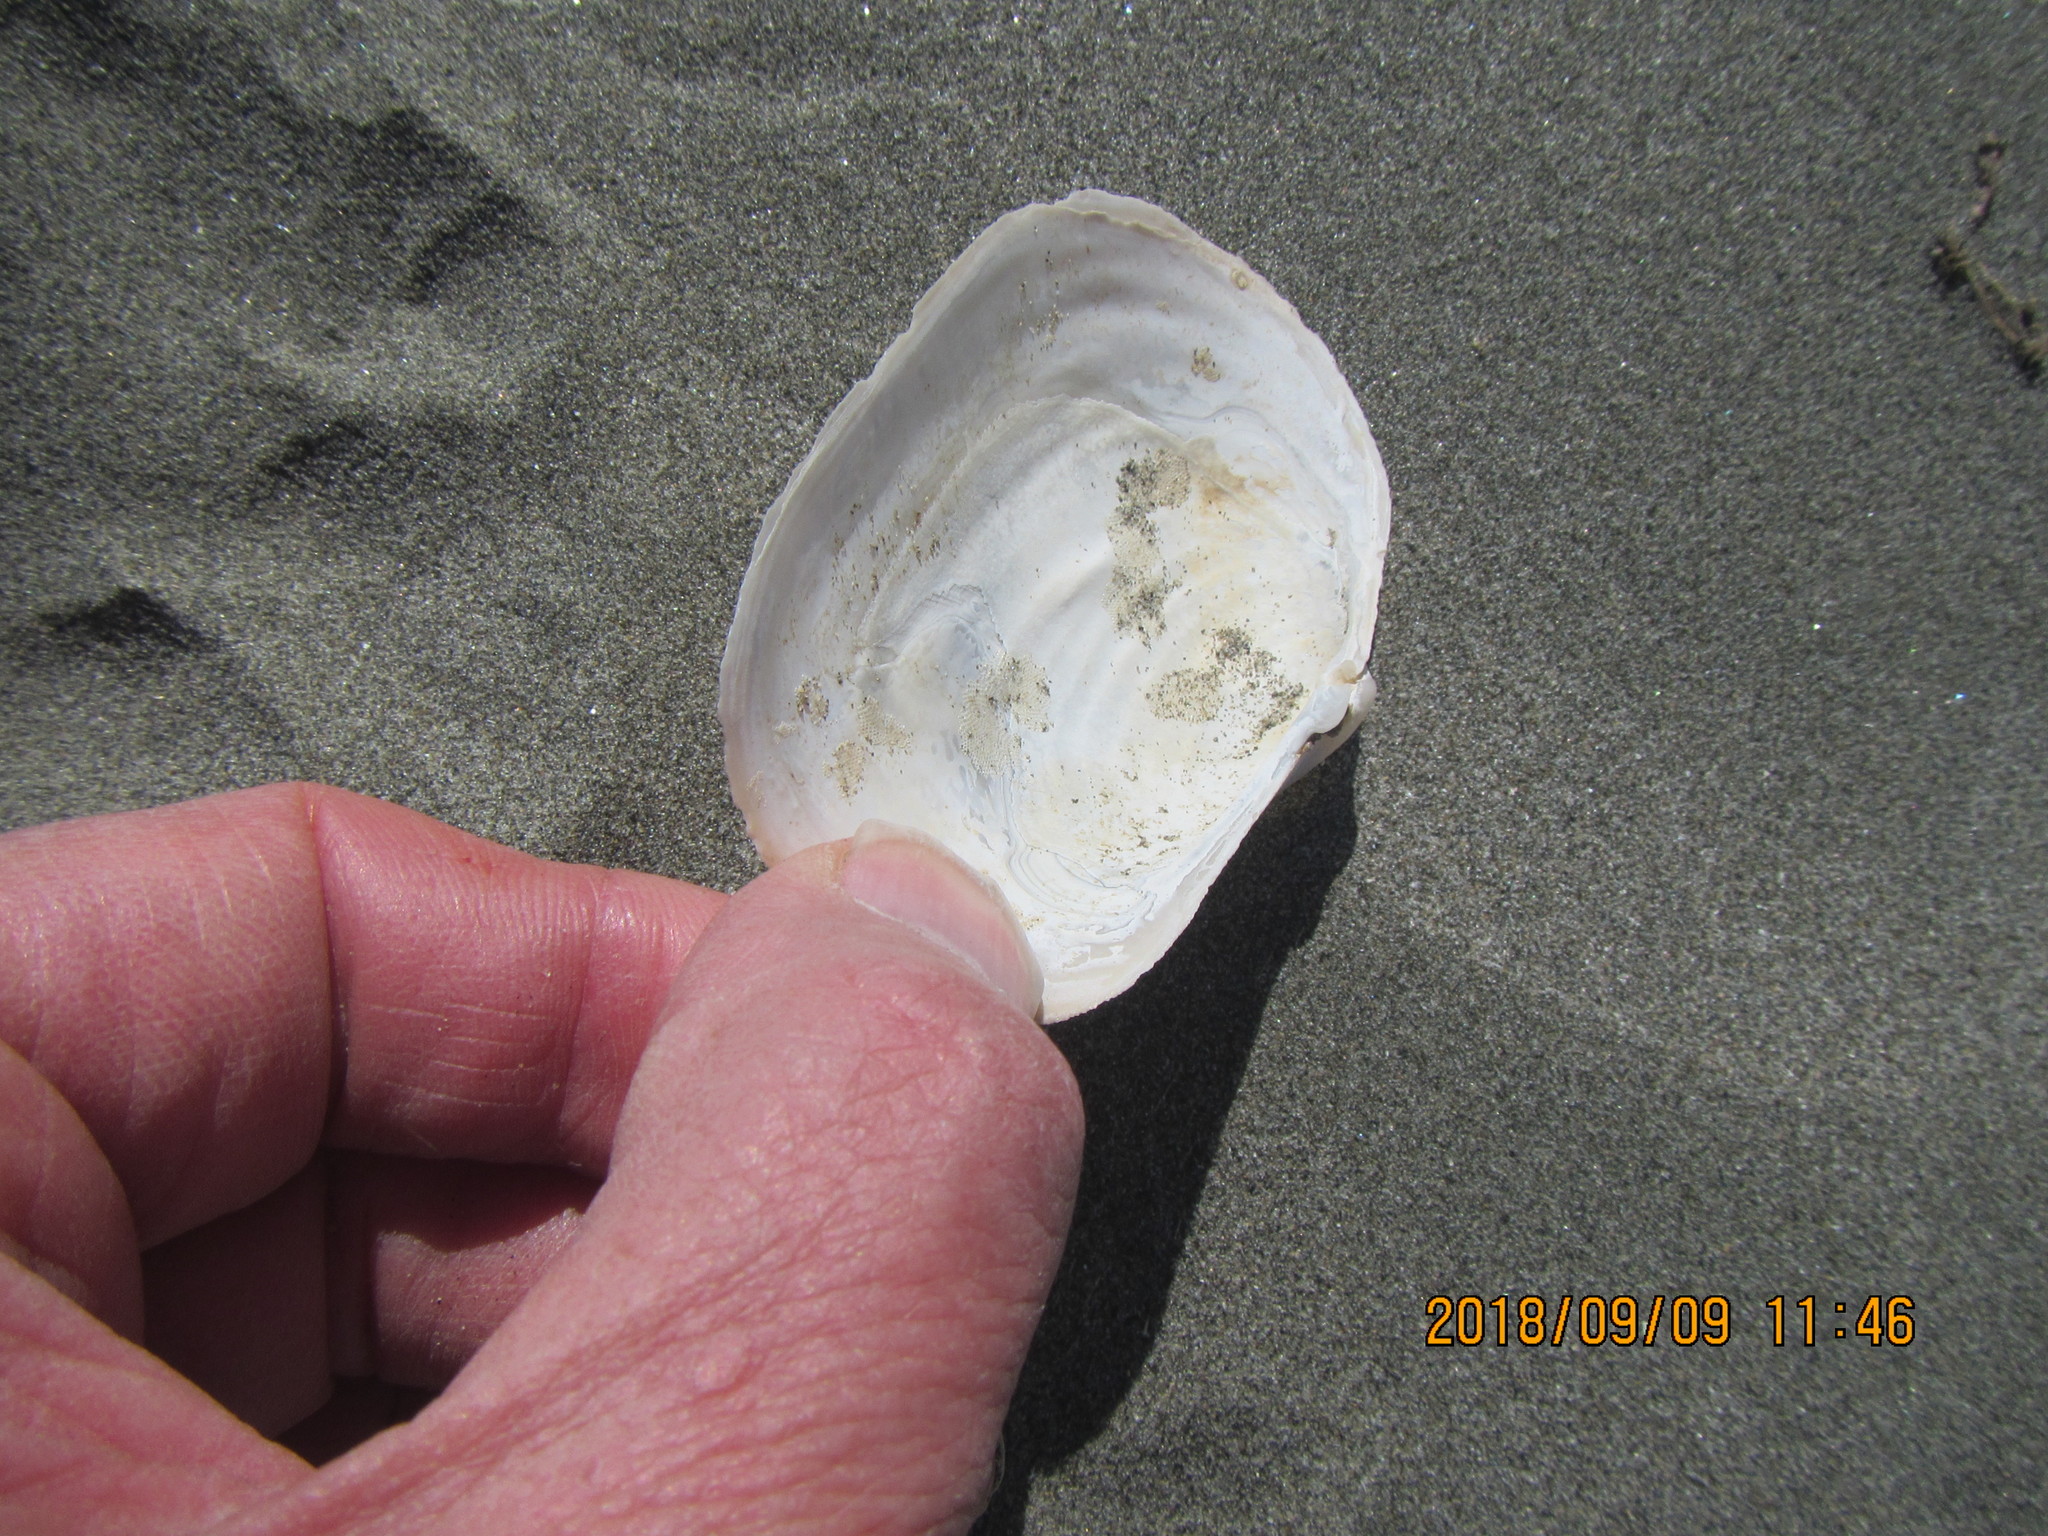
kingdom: Animalia
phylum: Mollusca
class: Bivalvia
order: Adapedonta
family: Hiatellidae
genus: Panopea
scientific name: Panopea zelandica
